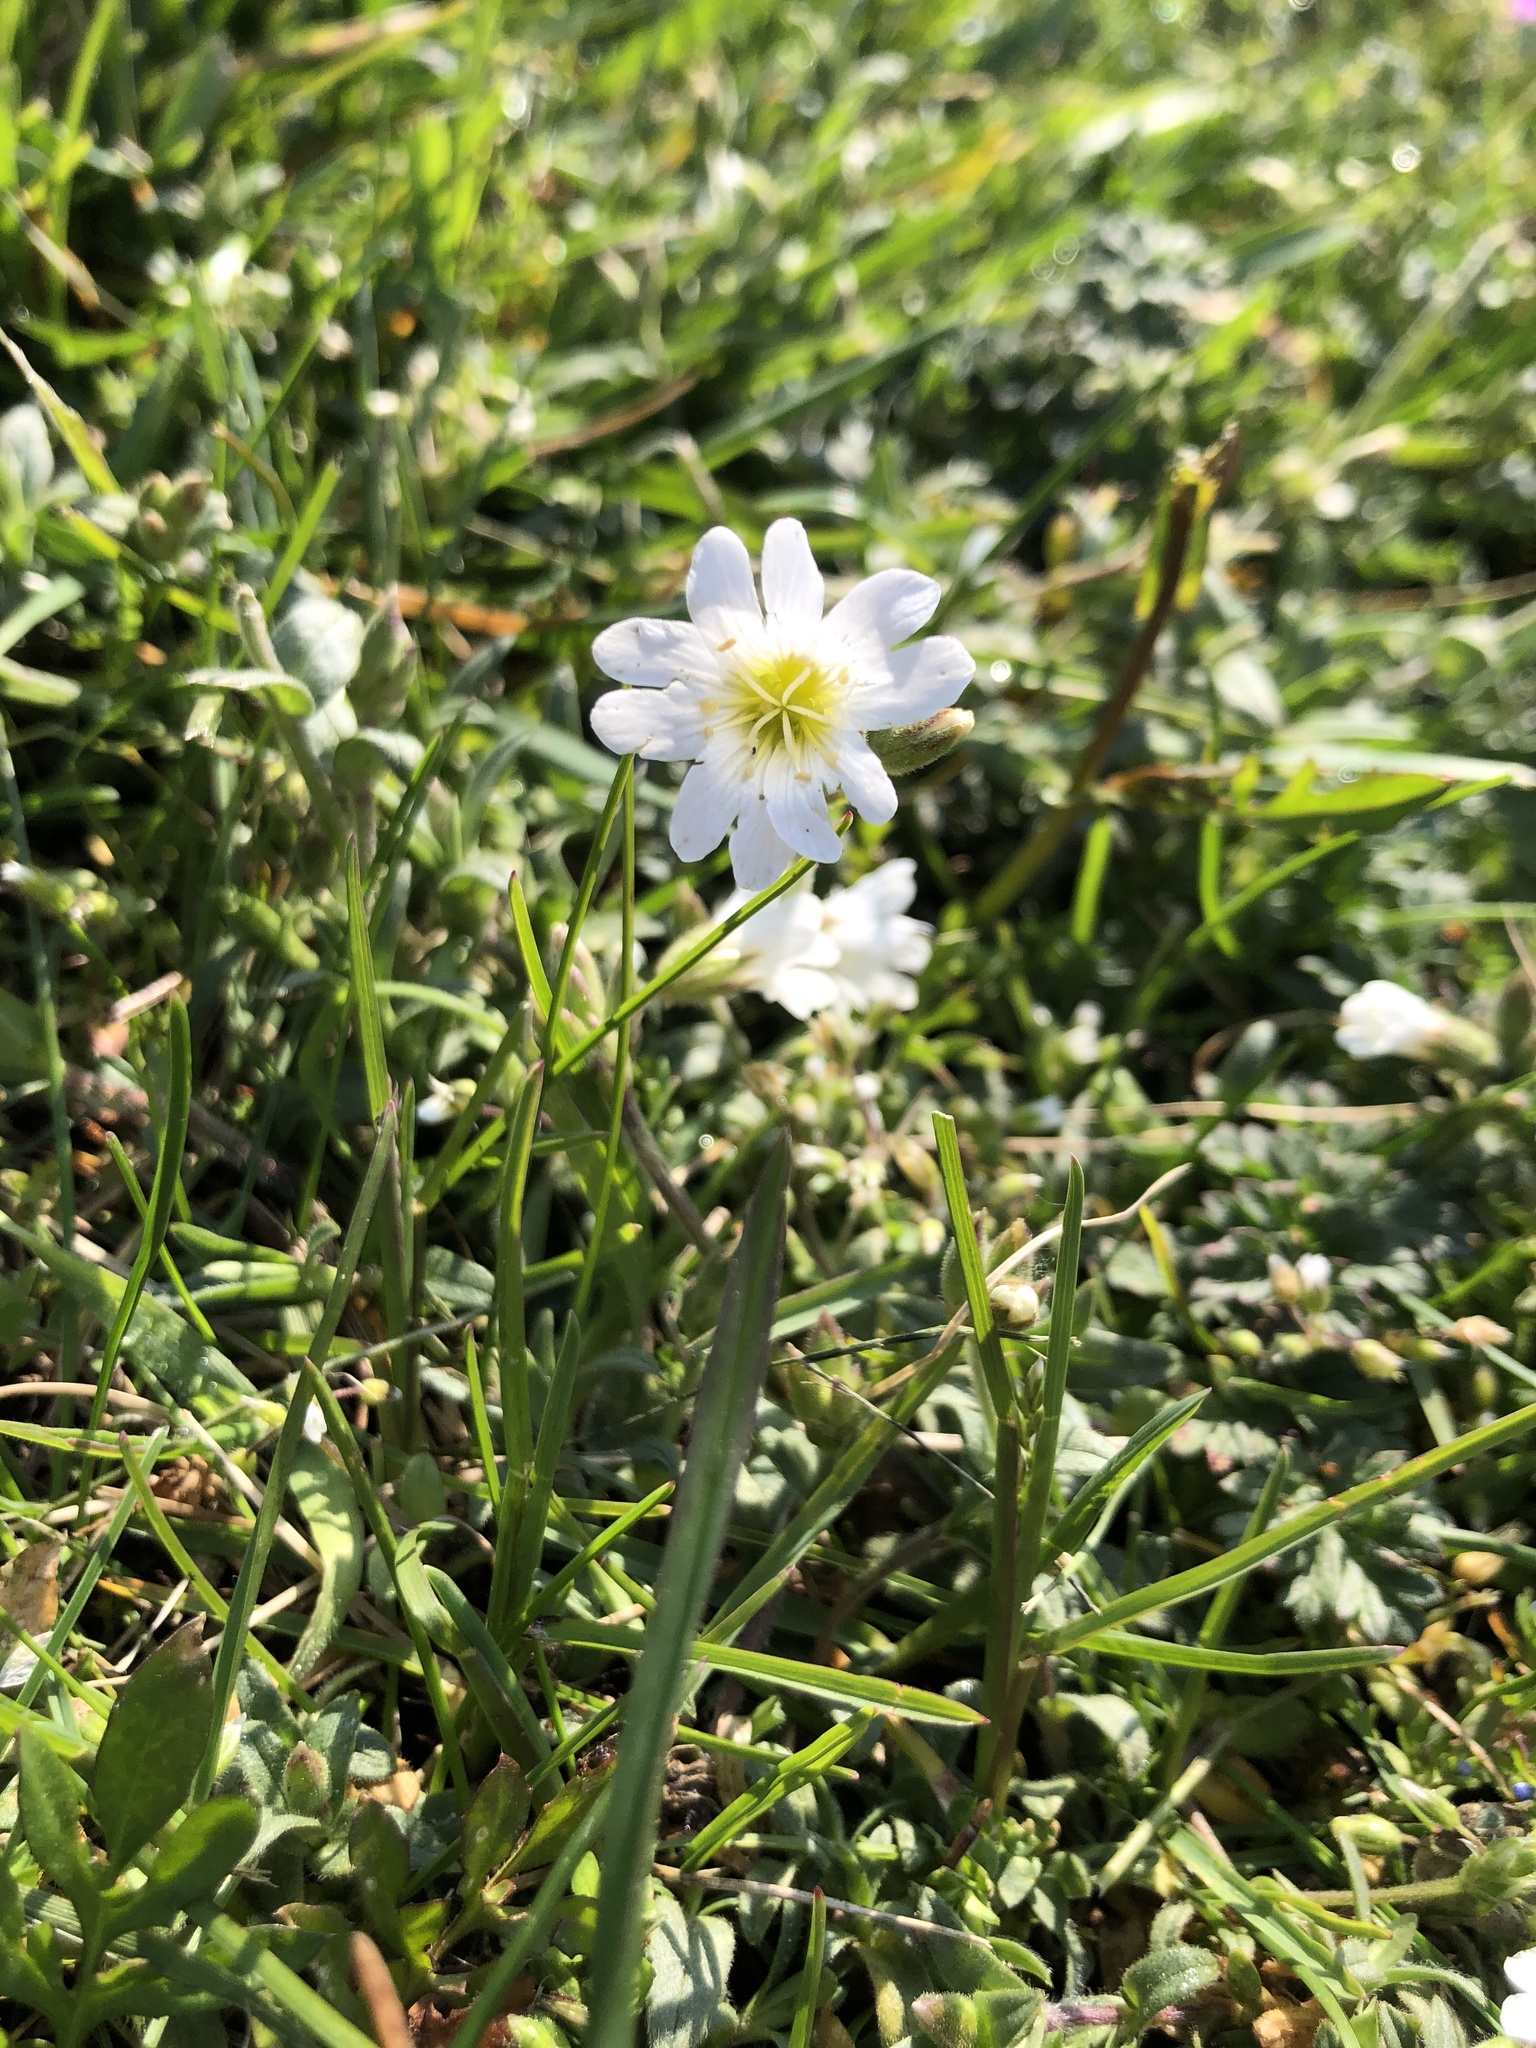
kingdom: Plantae
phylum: Tracheophyta
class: Magnoliopsida
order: Caryophyllales
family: Caryophyllaceae
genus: Cerastium
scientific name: Cerastium arvense
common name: Field mouse-ear
